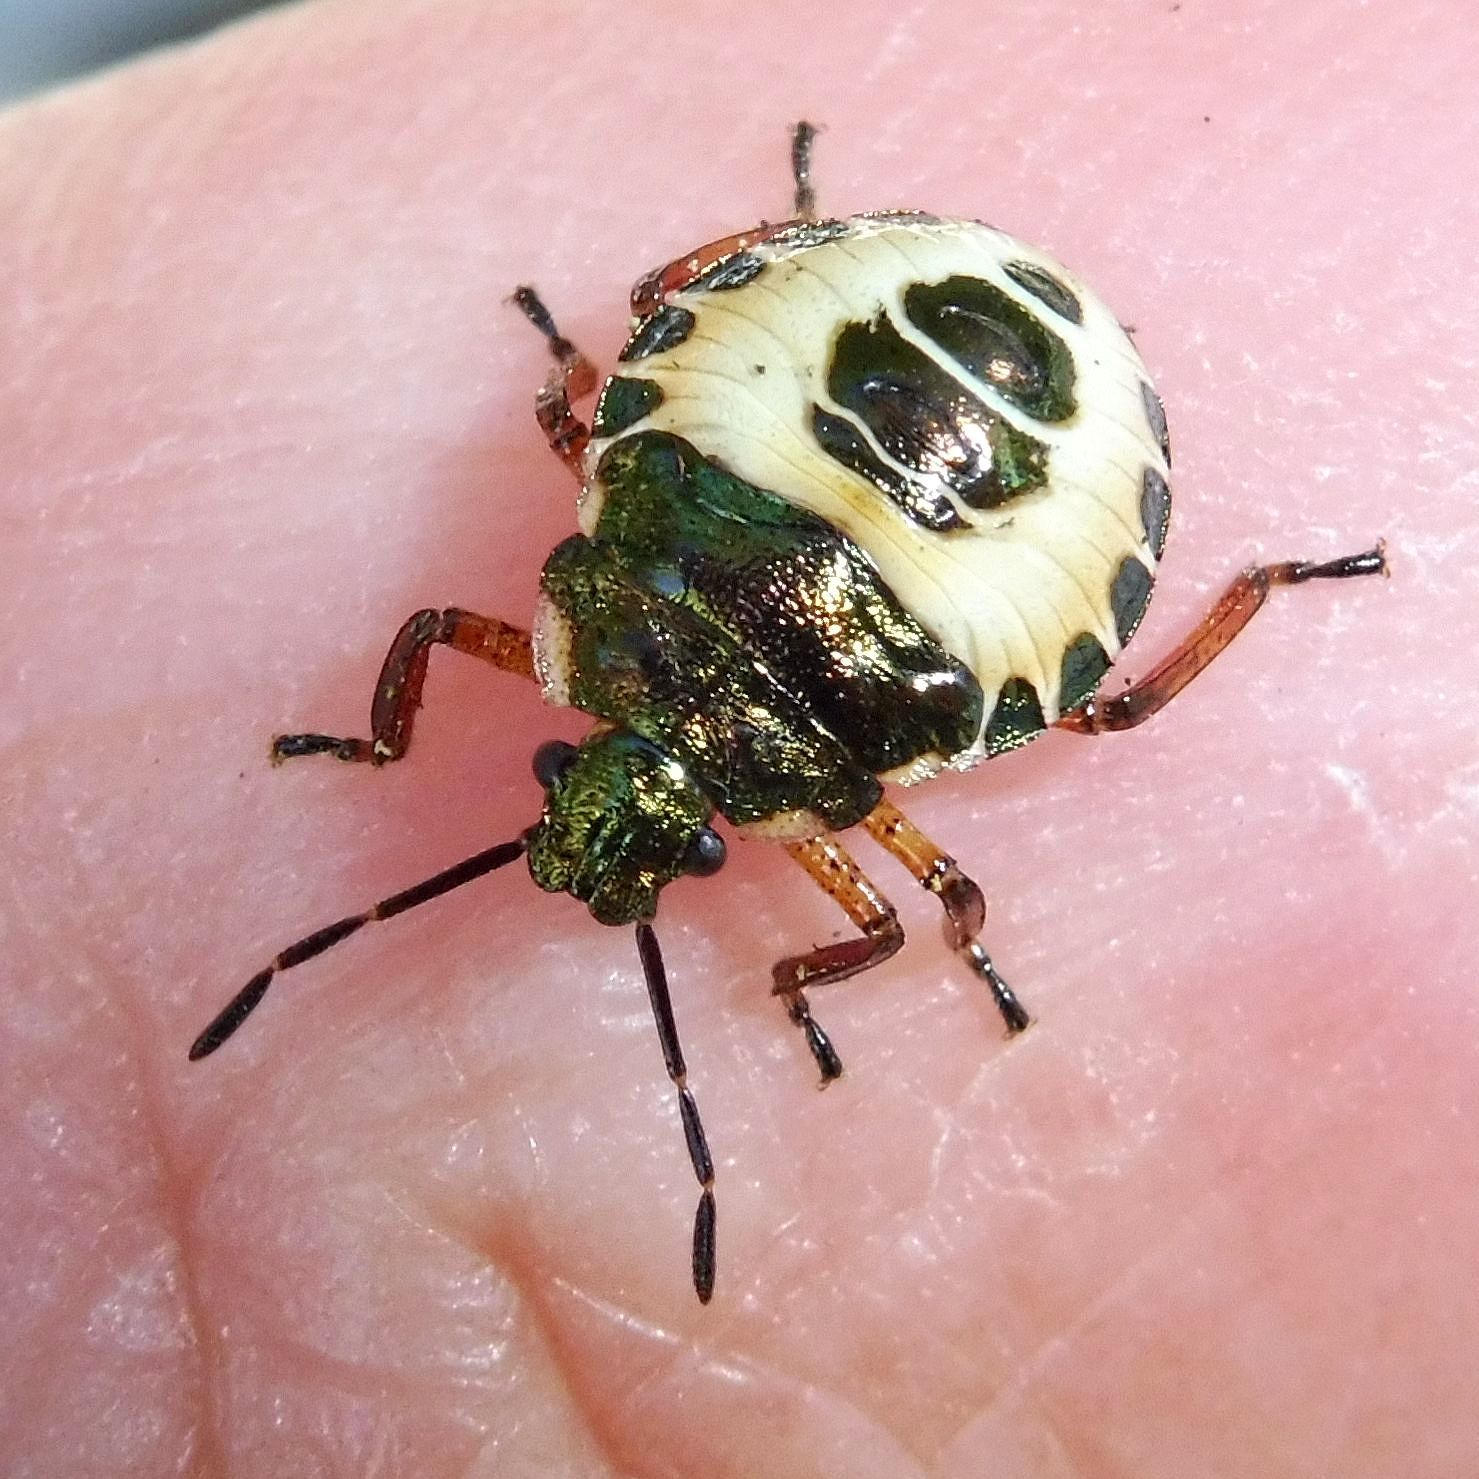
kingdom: Animalia
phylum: Arthropoda
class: Insecta
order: Hemiptera
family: Pentatomidae
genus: Troilus
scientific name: Troilus luridus
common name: Bronze shieldbug
